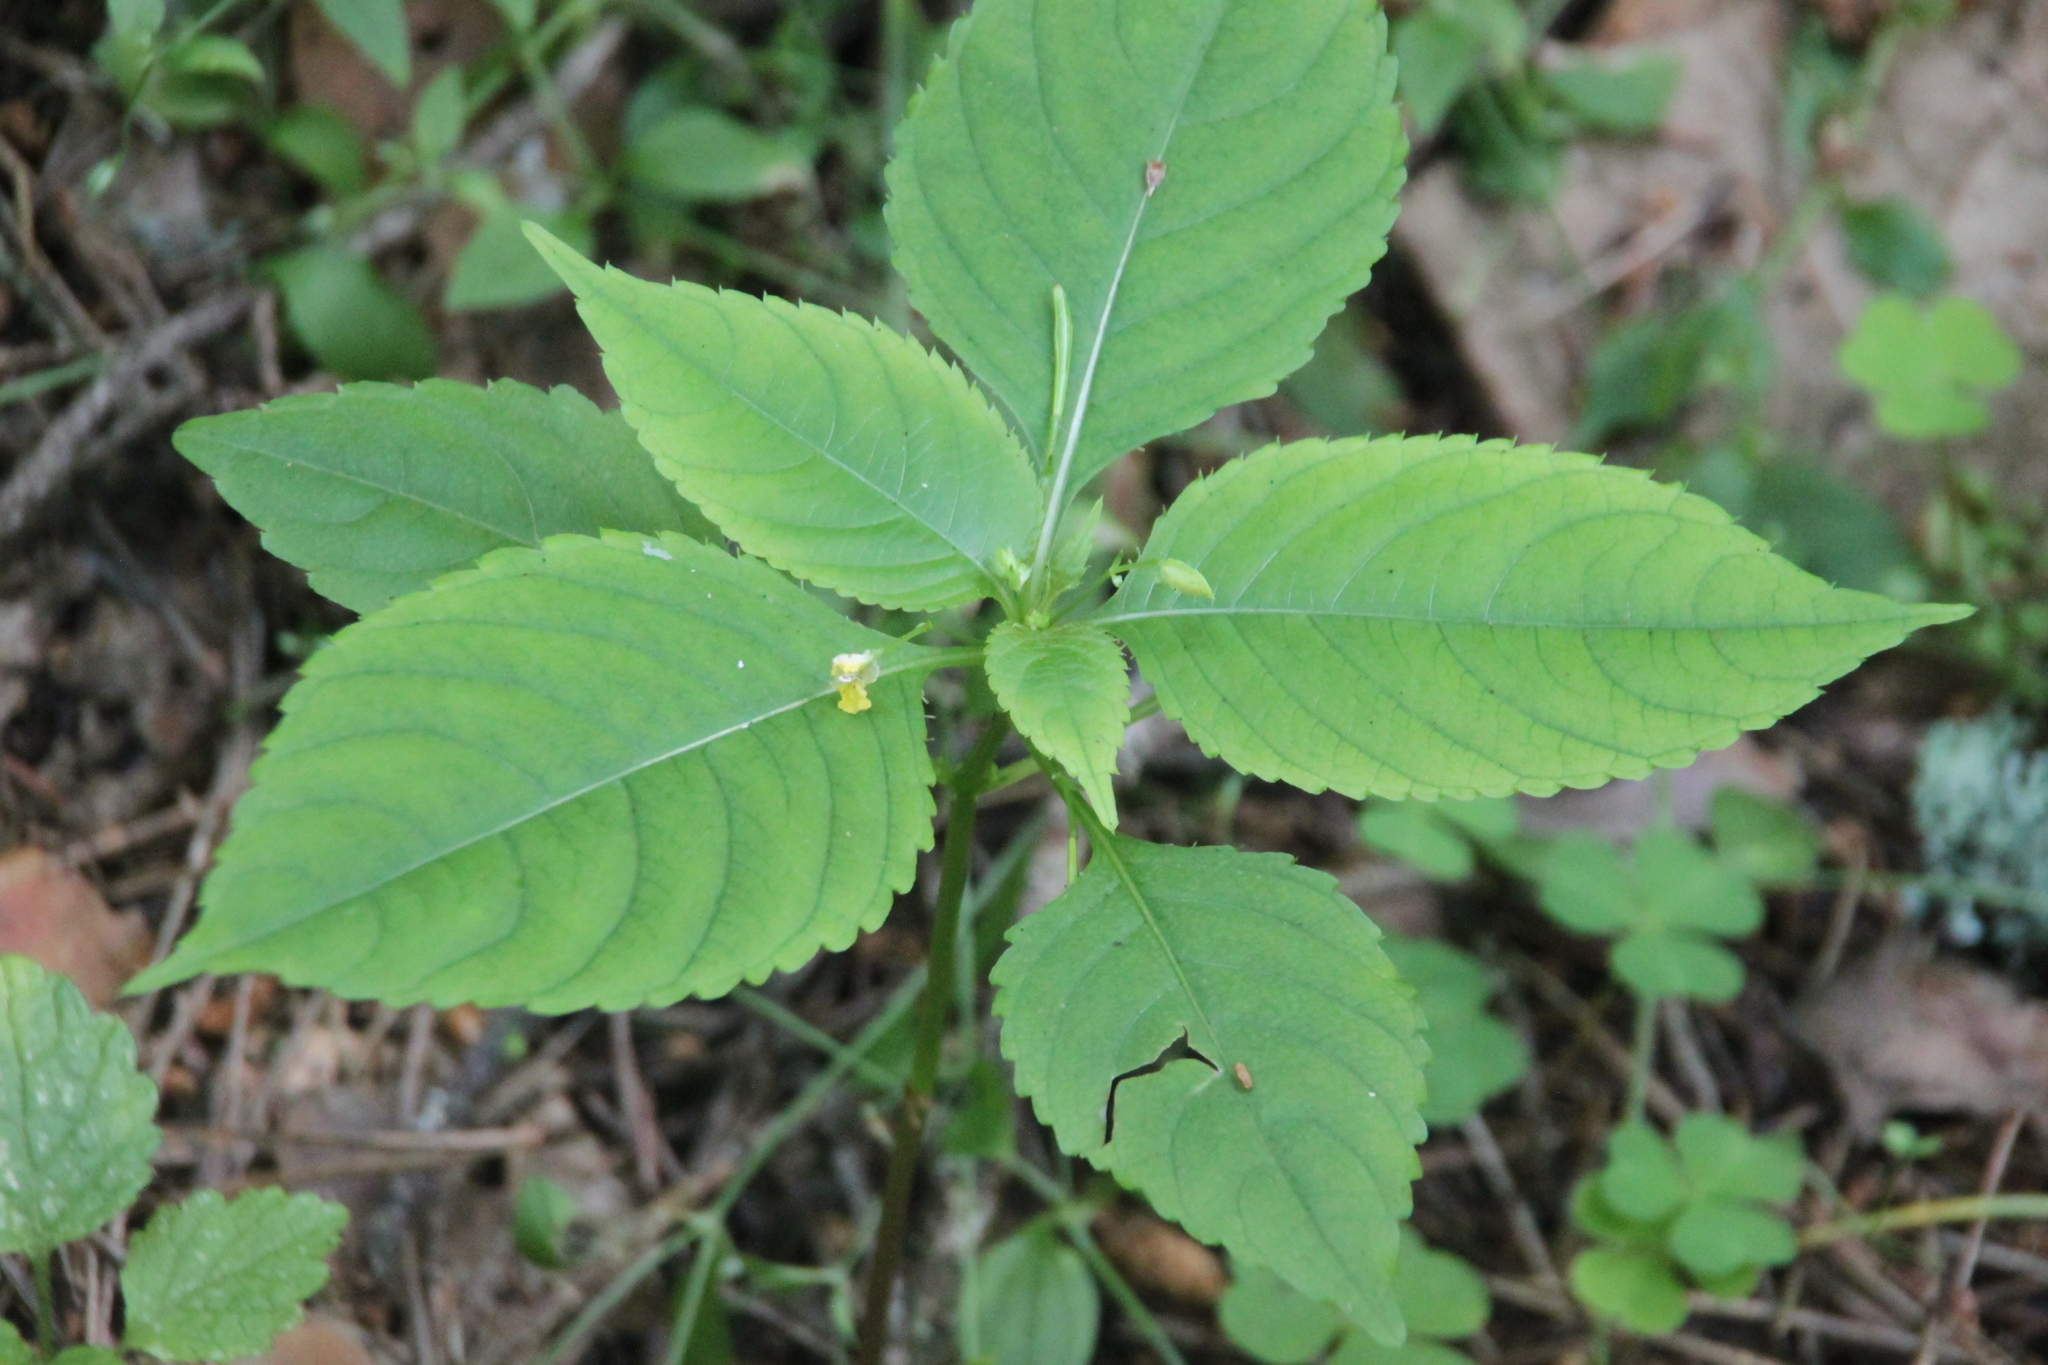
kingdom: Plantae
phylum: Tracheophyta
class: Magnoliopsida
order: Ericales
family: Balsaminaceae
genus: Impatiens
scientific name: Impatiens parviflora
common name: Small balsam
